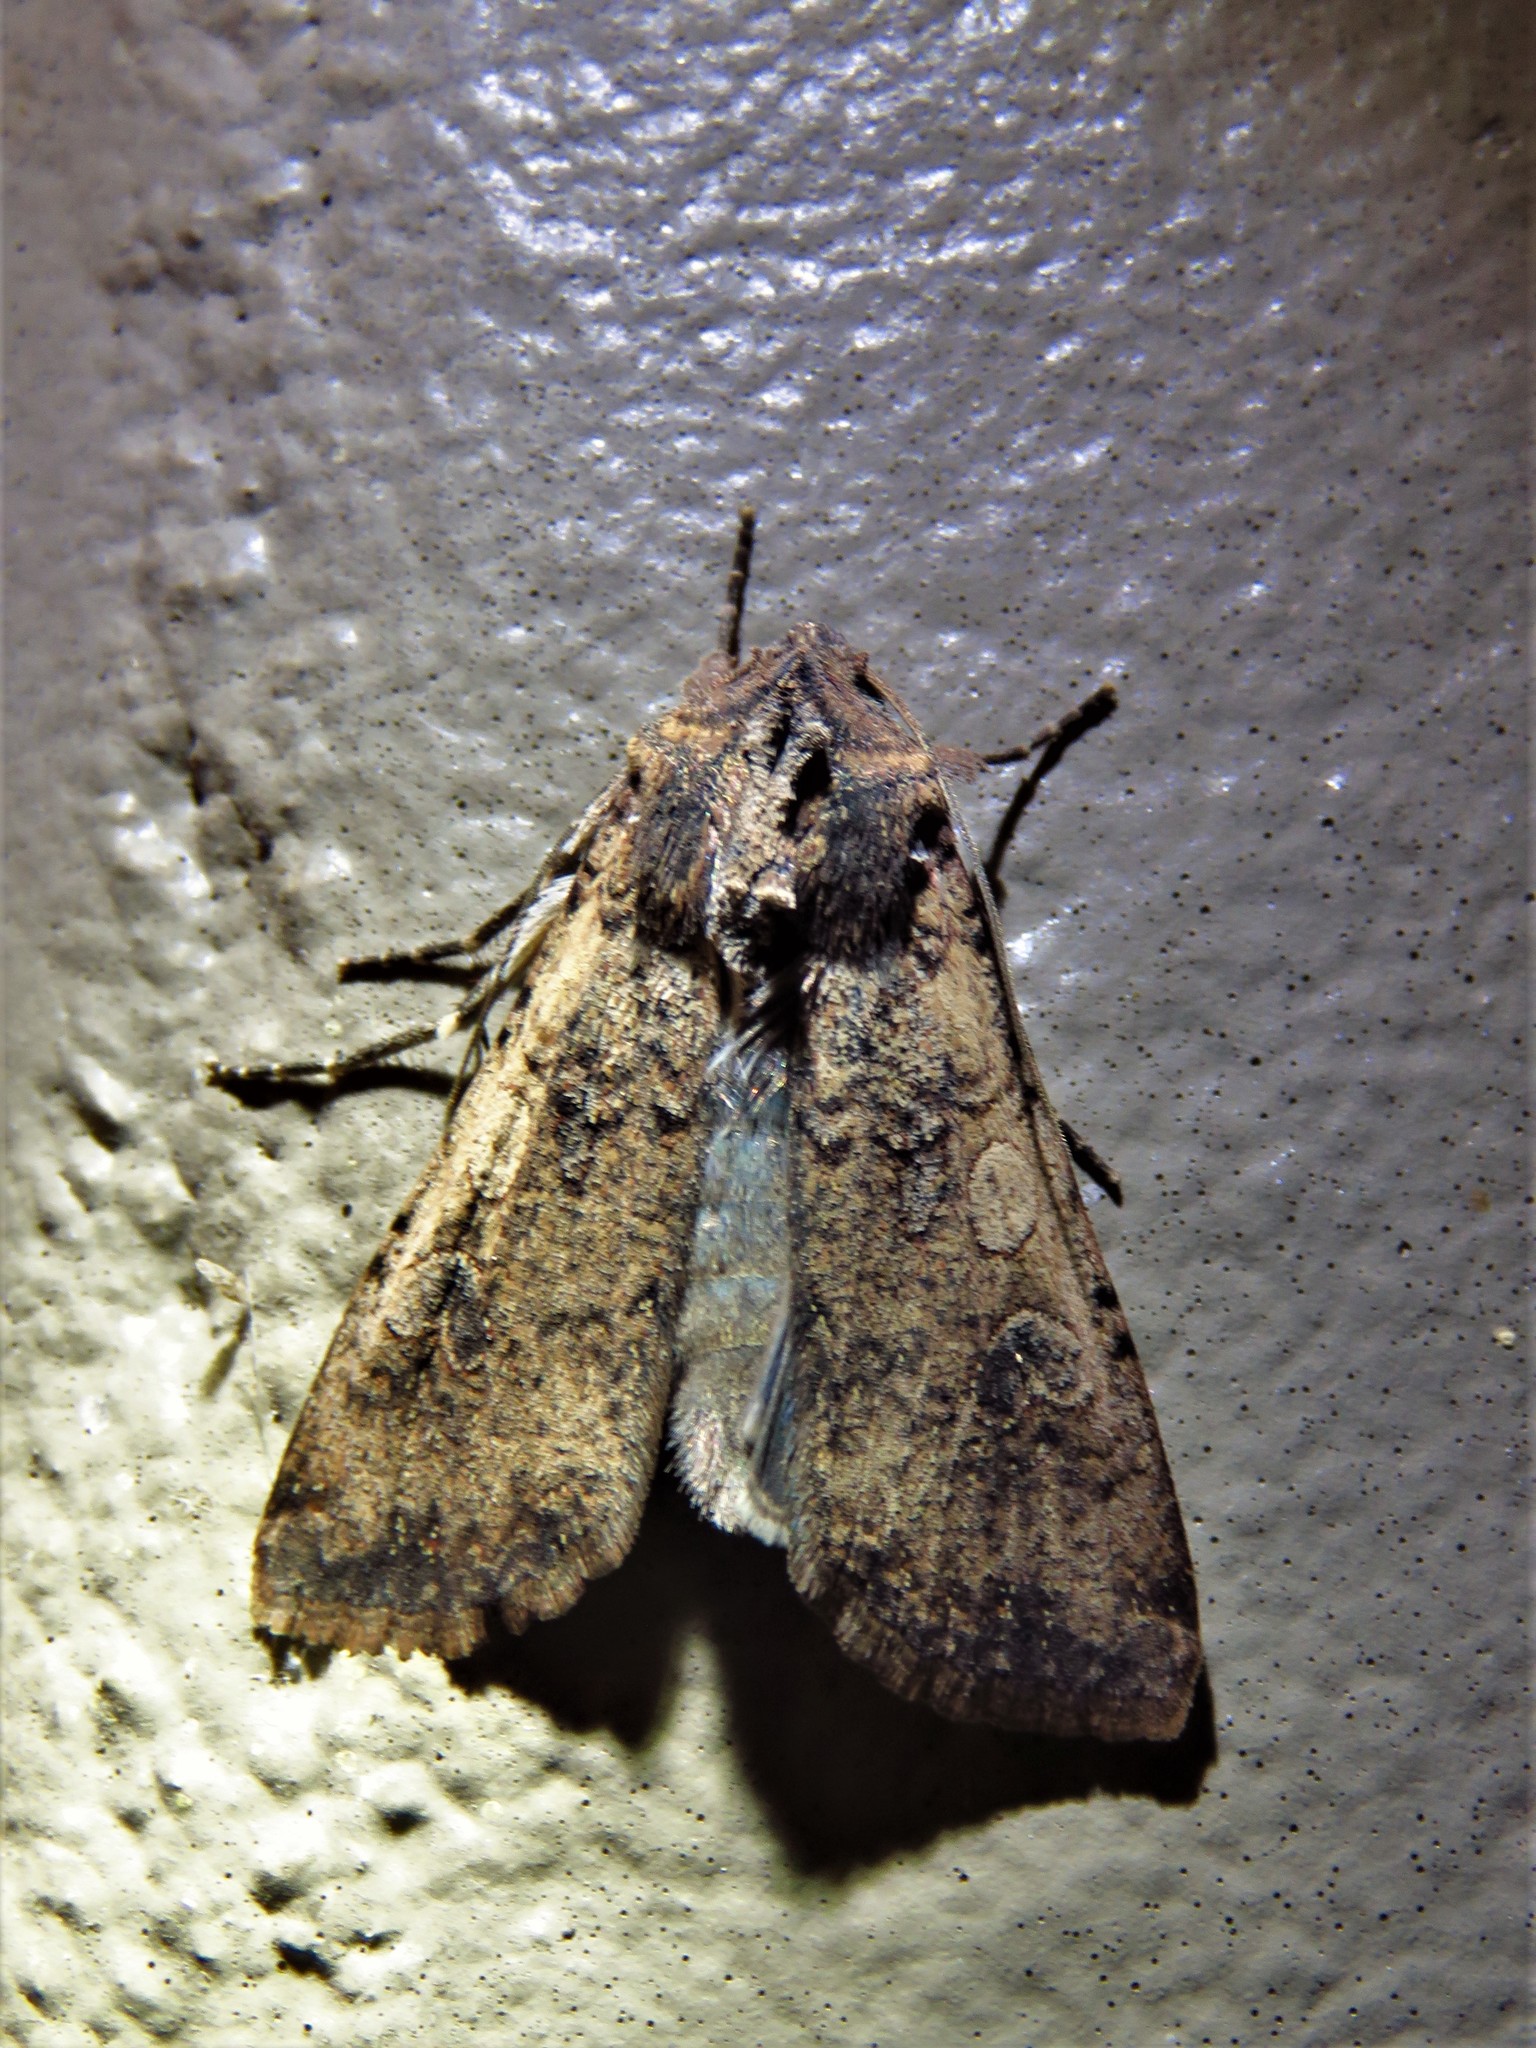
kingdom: Animalia
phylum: Arthropoda
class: Insecta
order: Lepidoptera
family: Noctuidae
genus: Peridroma
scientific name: Peridroma saucia
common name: Pearly underwing
